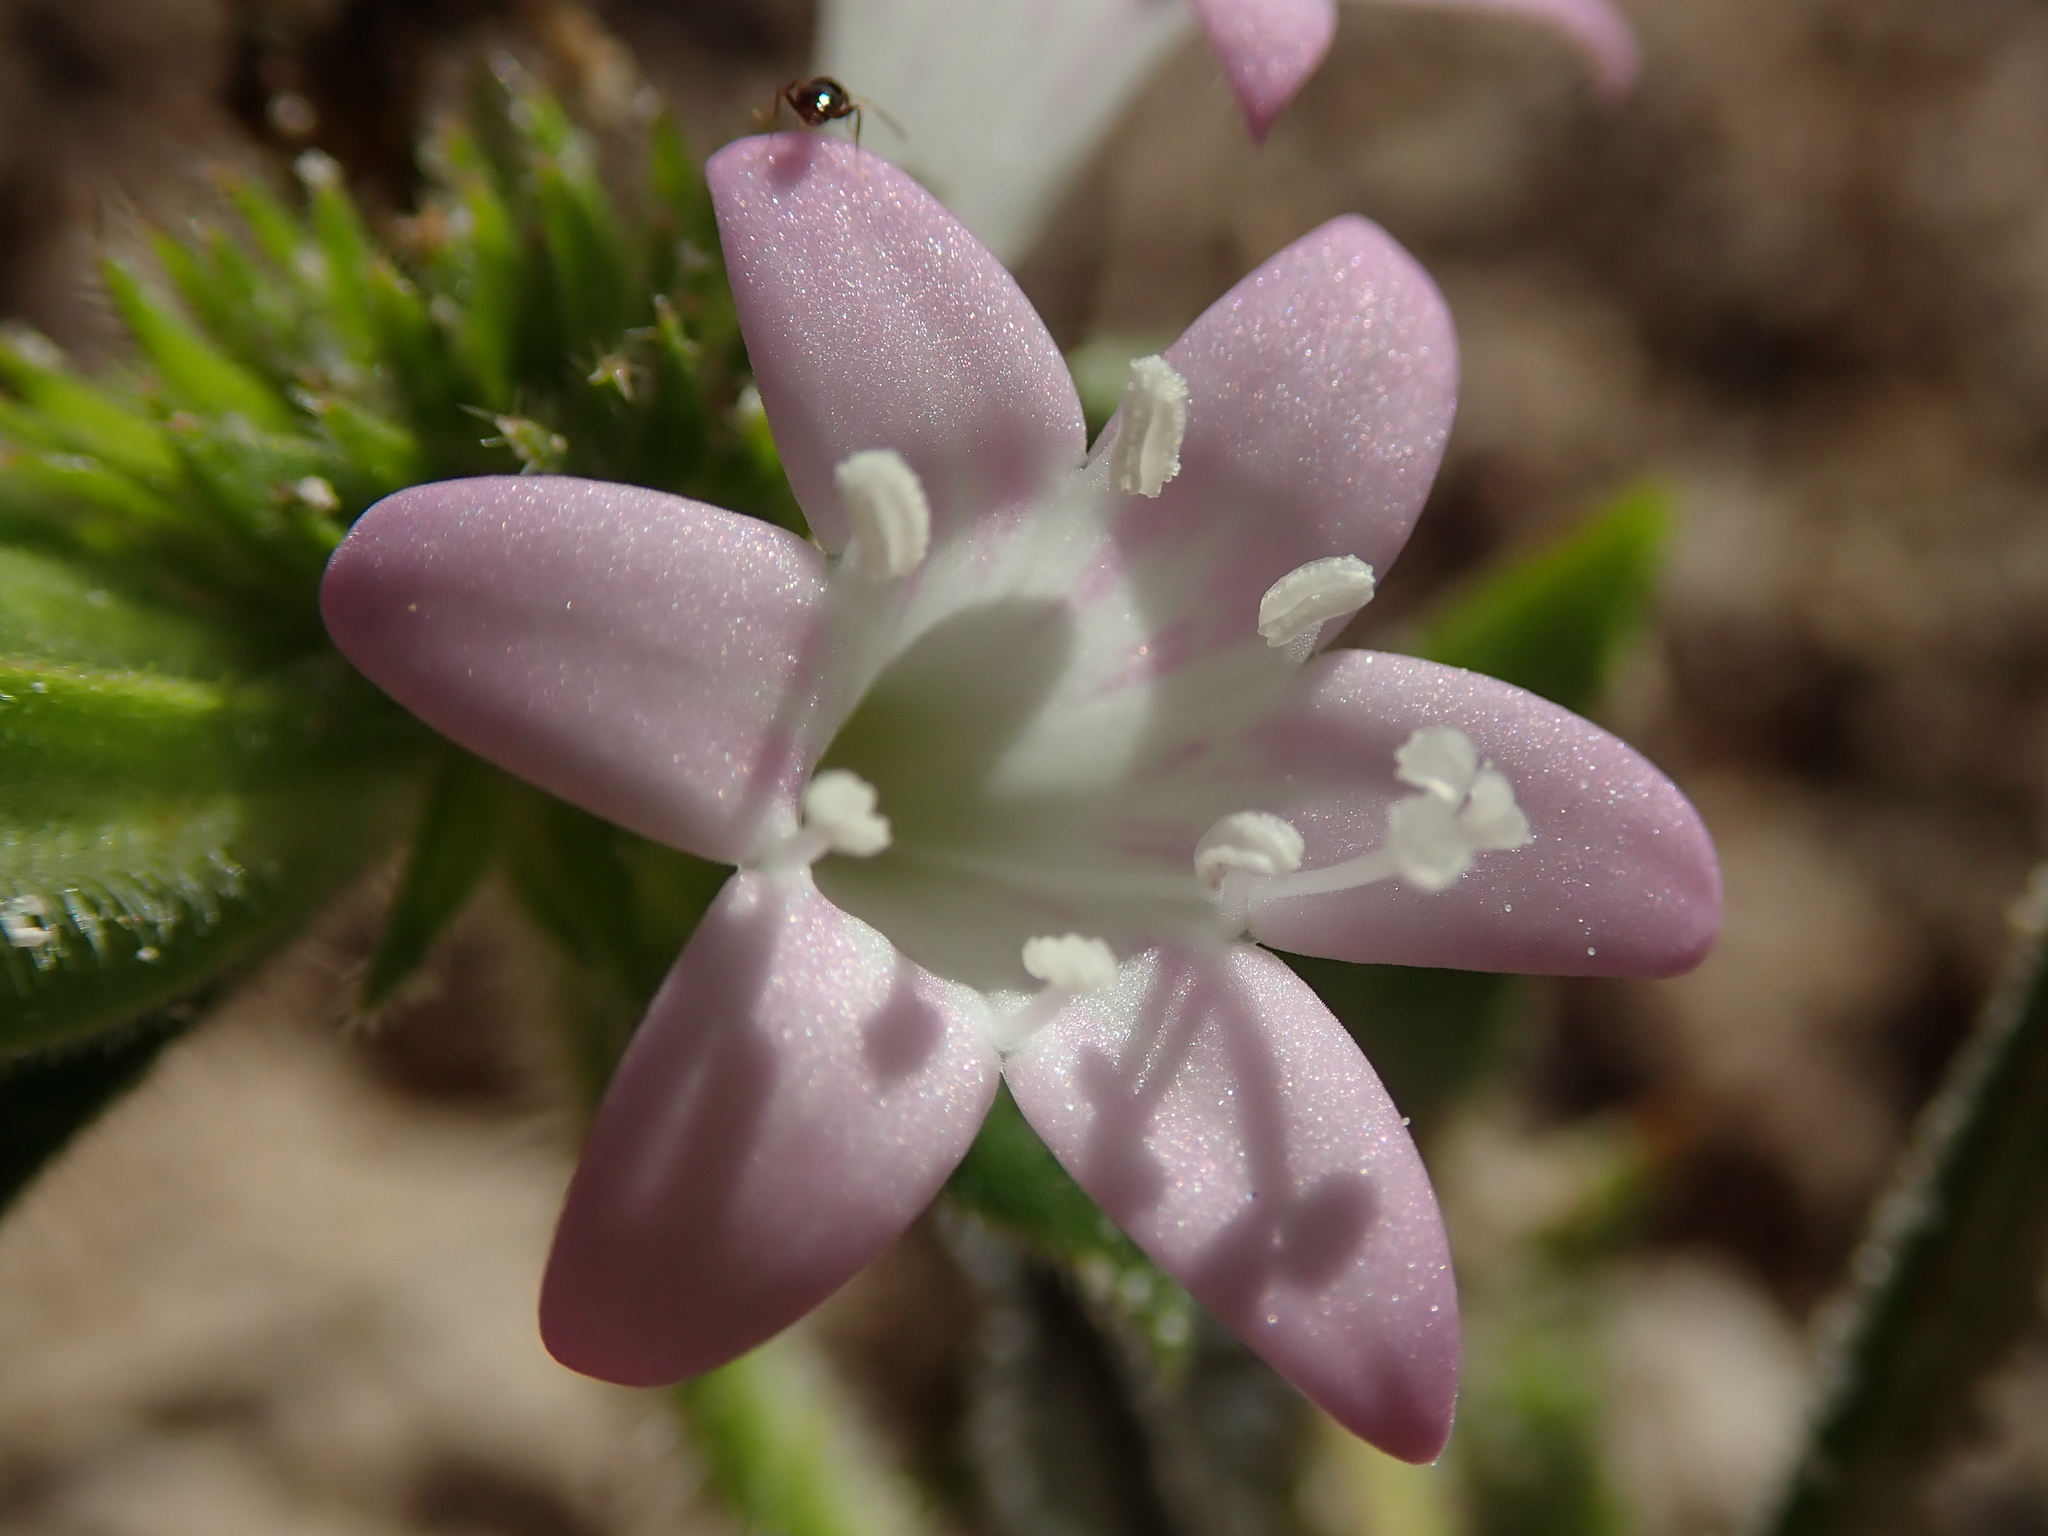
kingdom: Plantae
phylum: Tracheophyta
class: Magnoliopsida
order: Gentianales
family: Rubiaceae
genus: Richardia
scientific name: Richardia grandiflora
